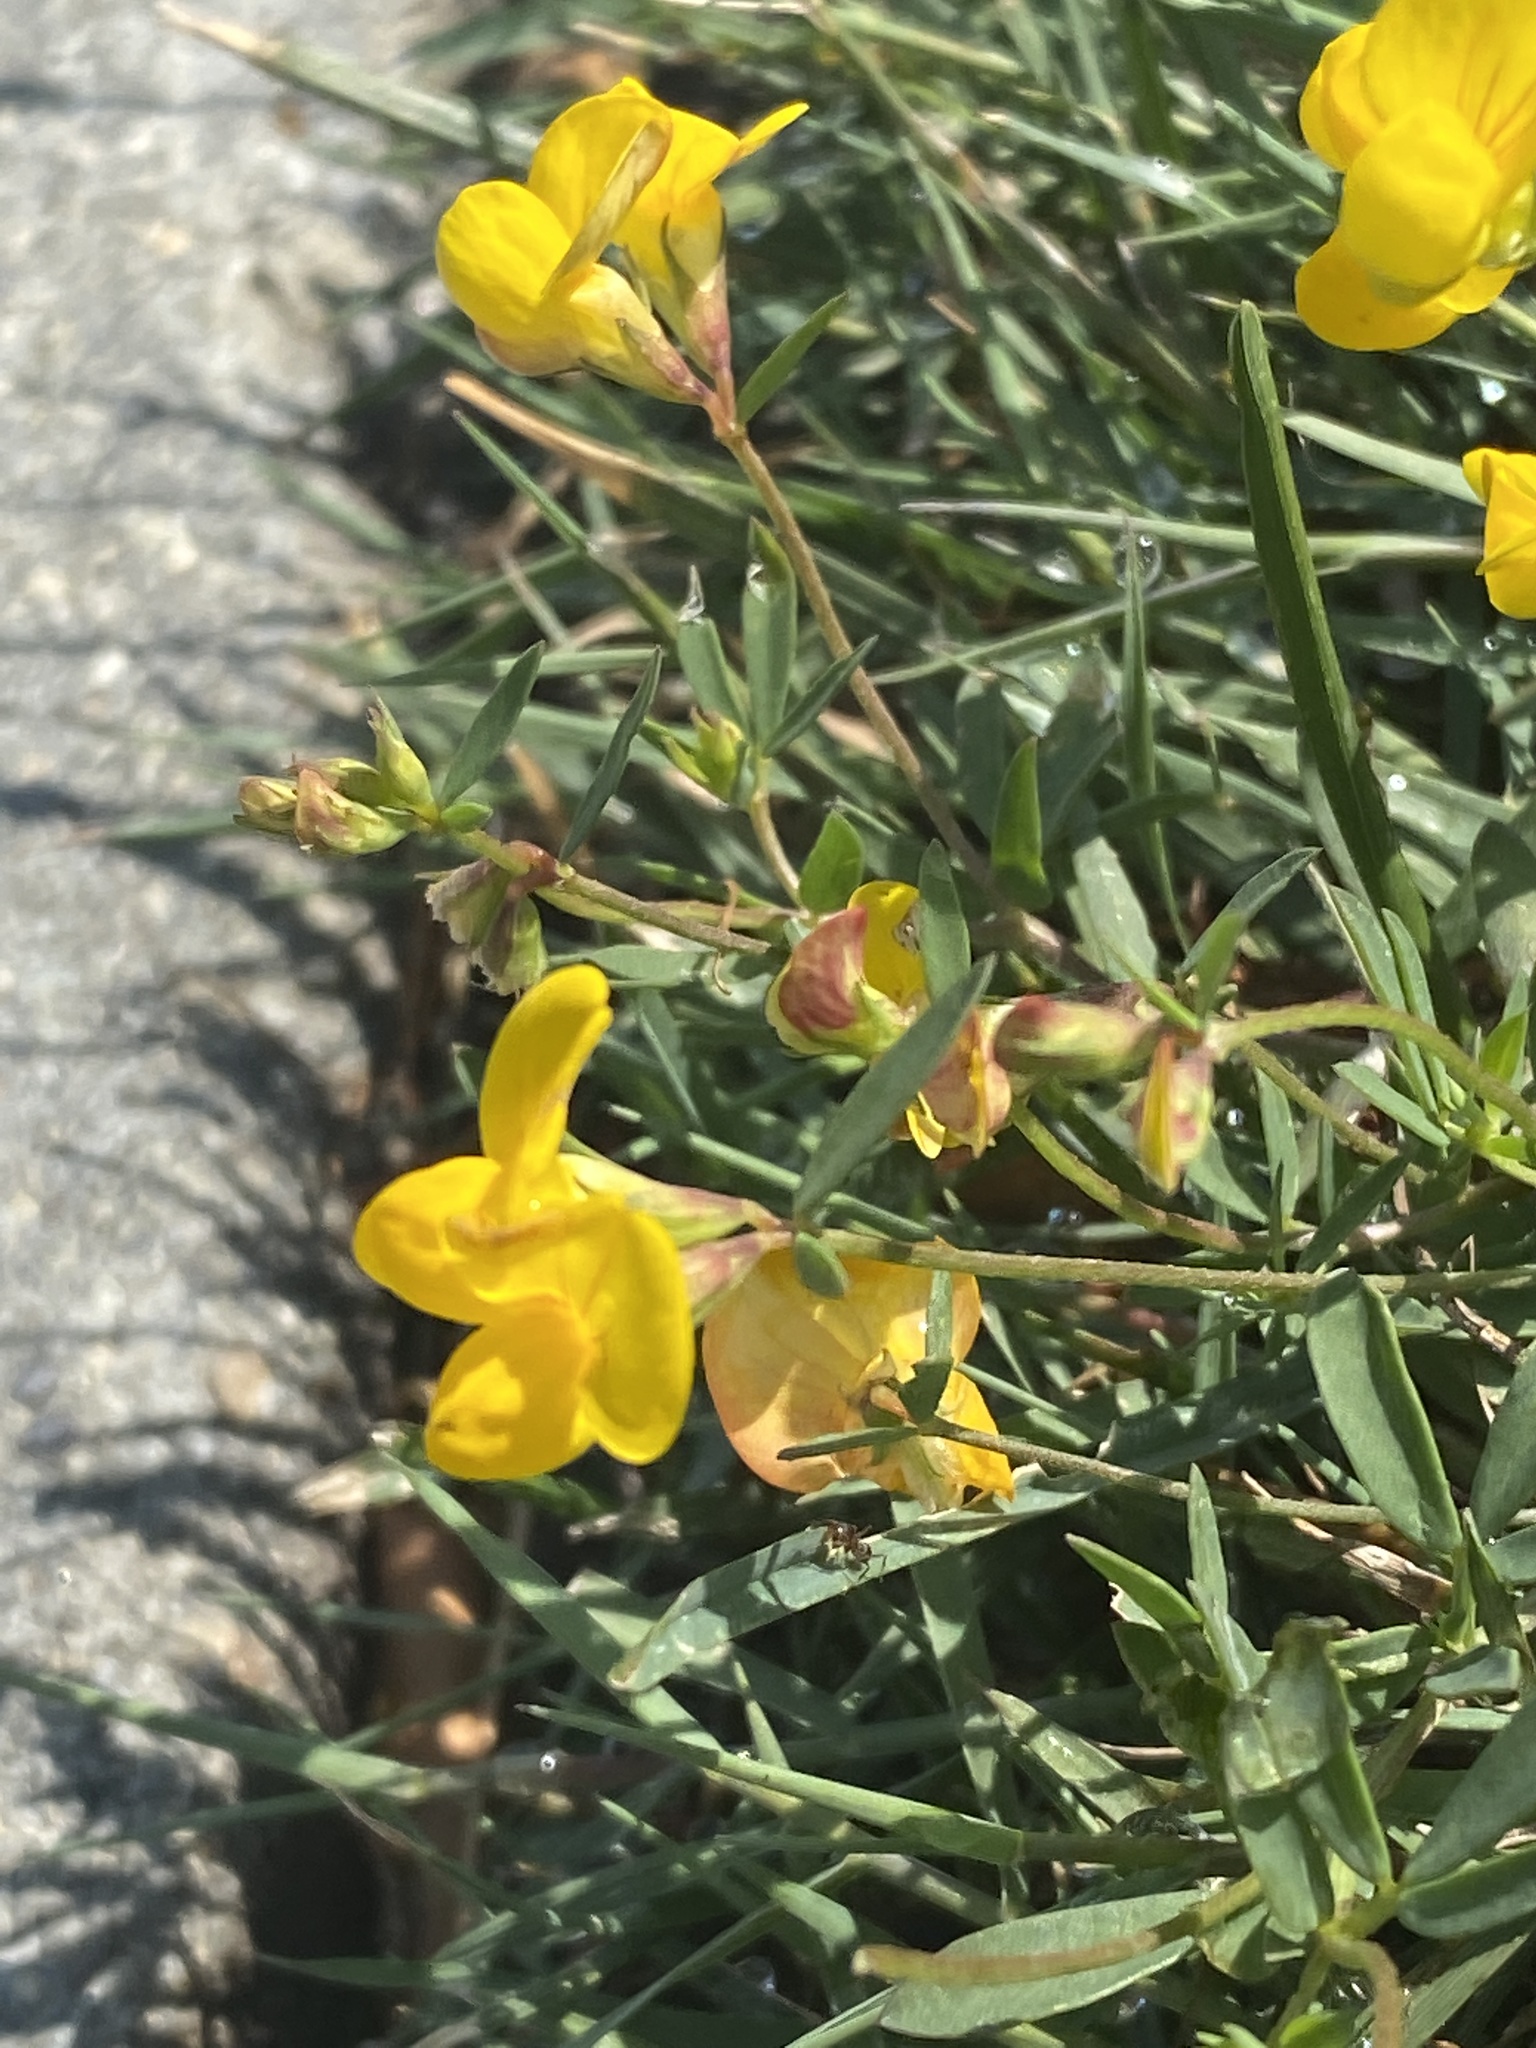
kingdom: Plantae
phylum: Tracheophyta
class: Magnoliopsida
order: Fabales
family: Fabaceae
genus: Lotus
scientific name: Lotus corniculatus
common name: Common bird's-foot-trefoil
